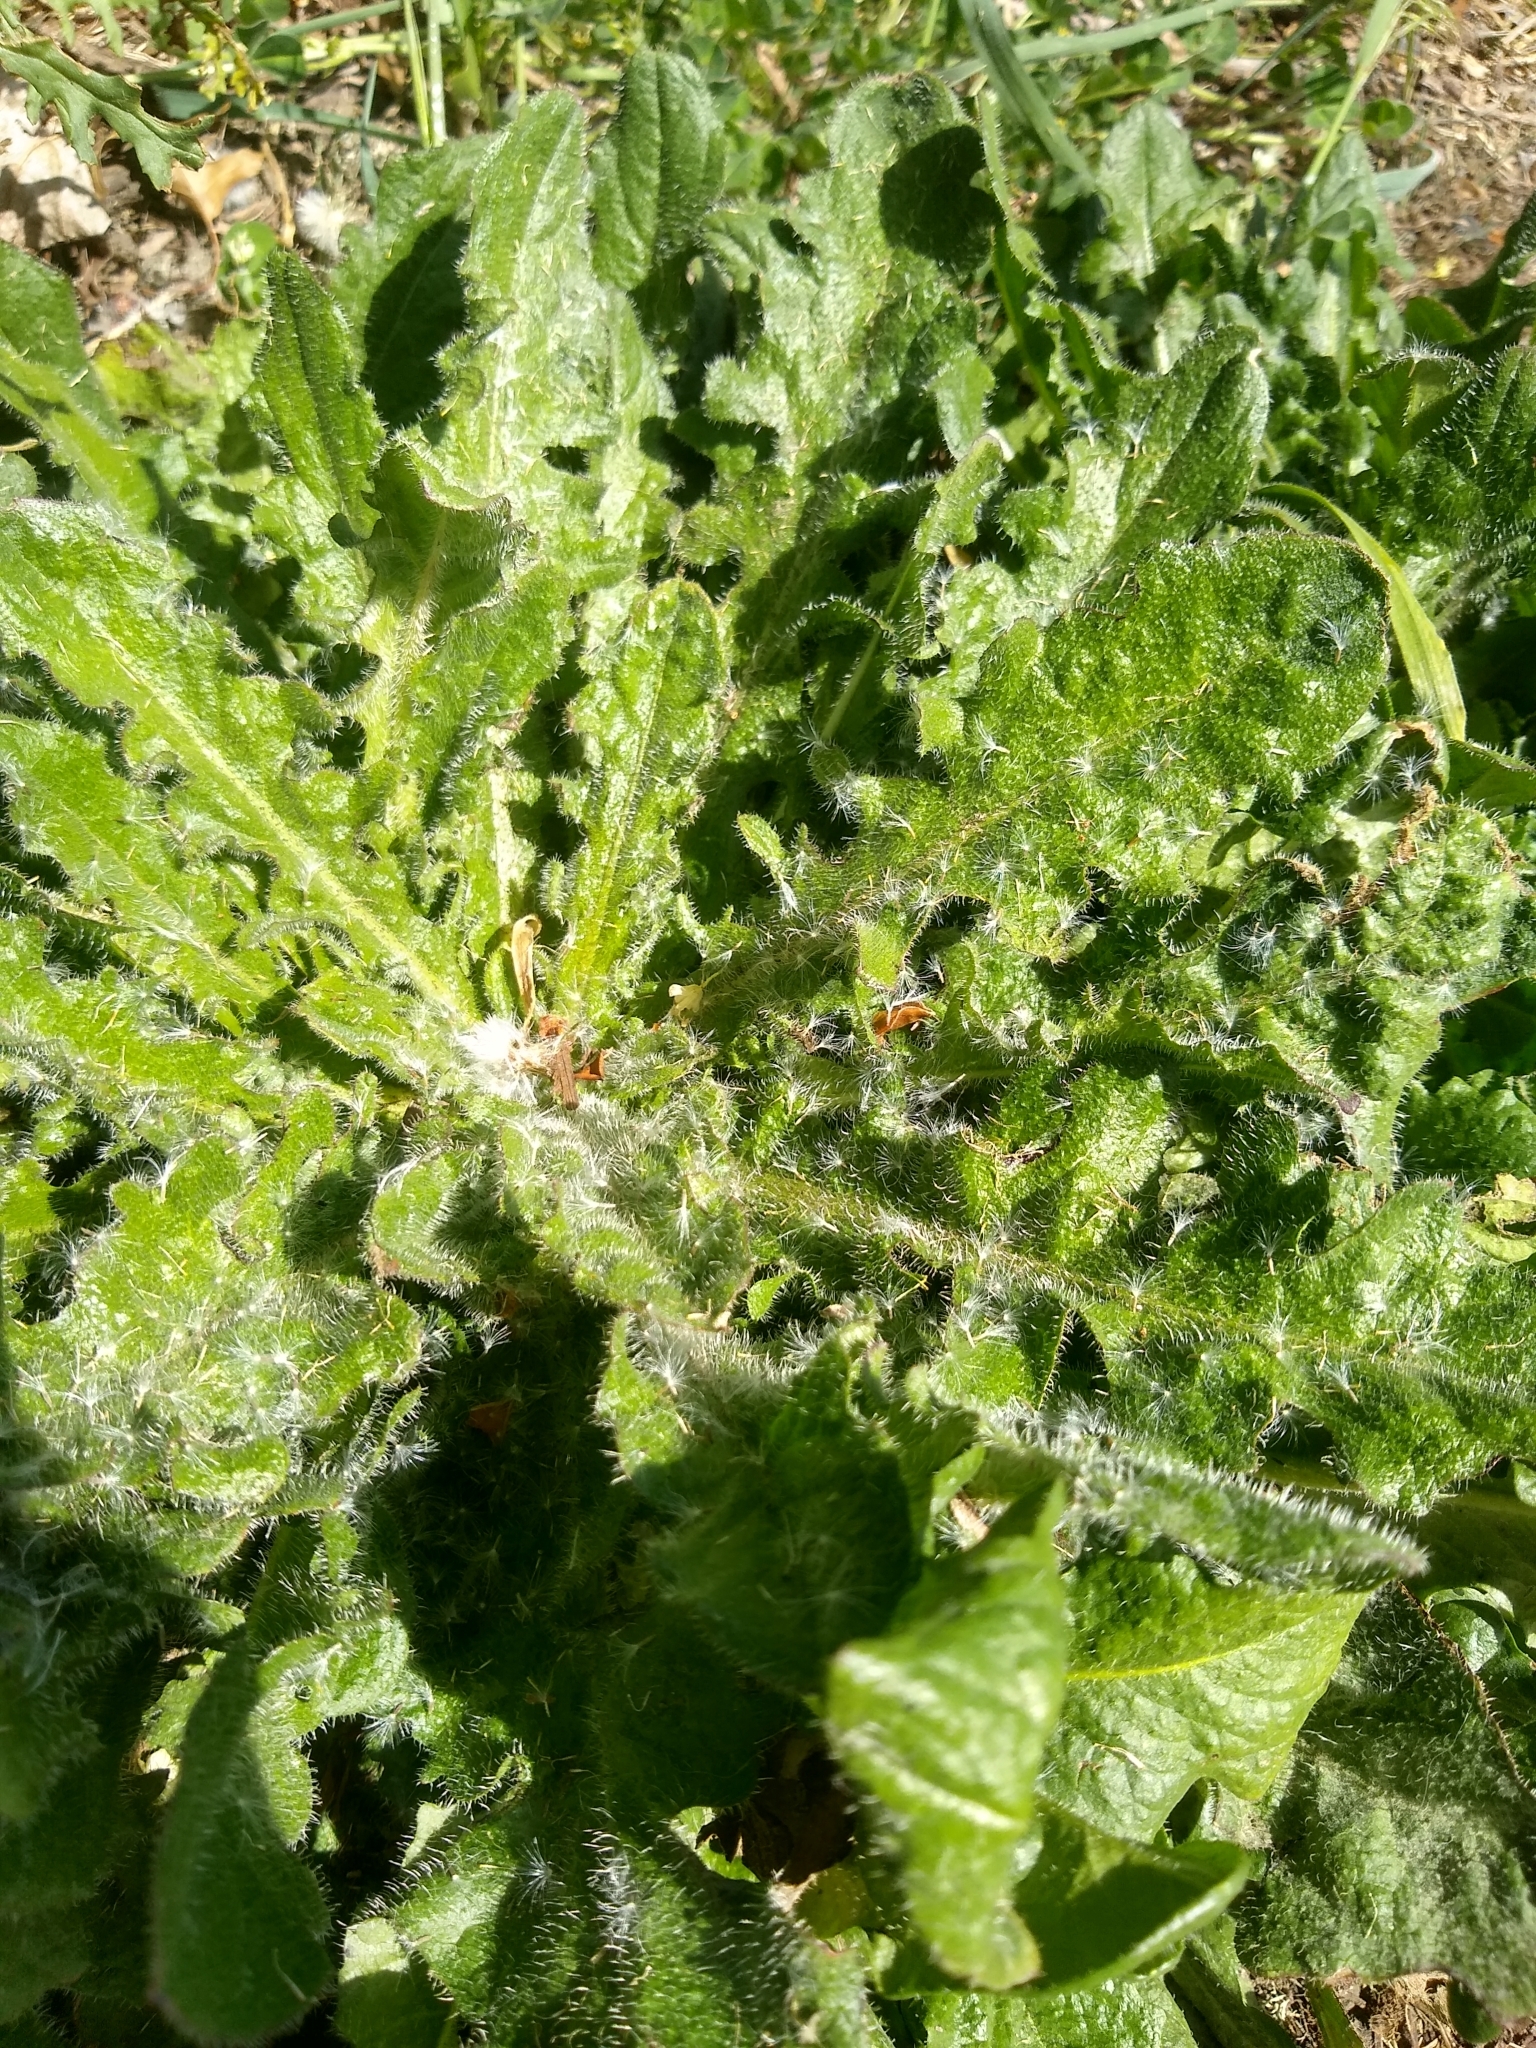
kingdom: Plantae
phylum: Tracheophyta
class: Magnoliopsida
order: Asterales
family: Asteraceae
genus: Hypochaeris
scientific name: Hypochaeris radicata
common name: Flatweed
